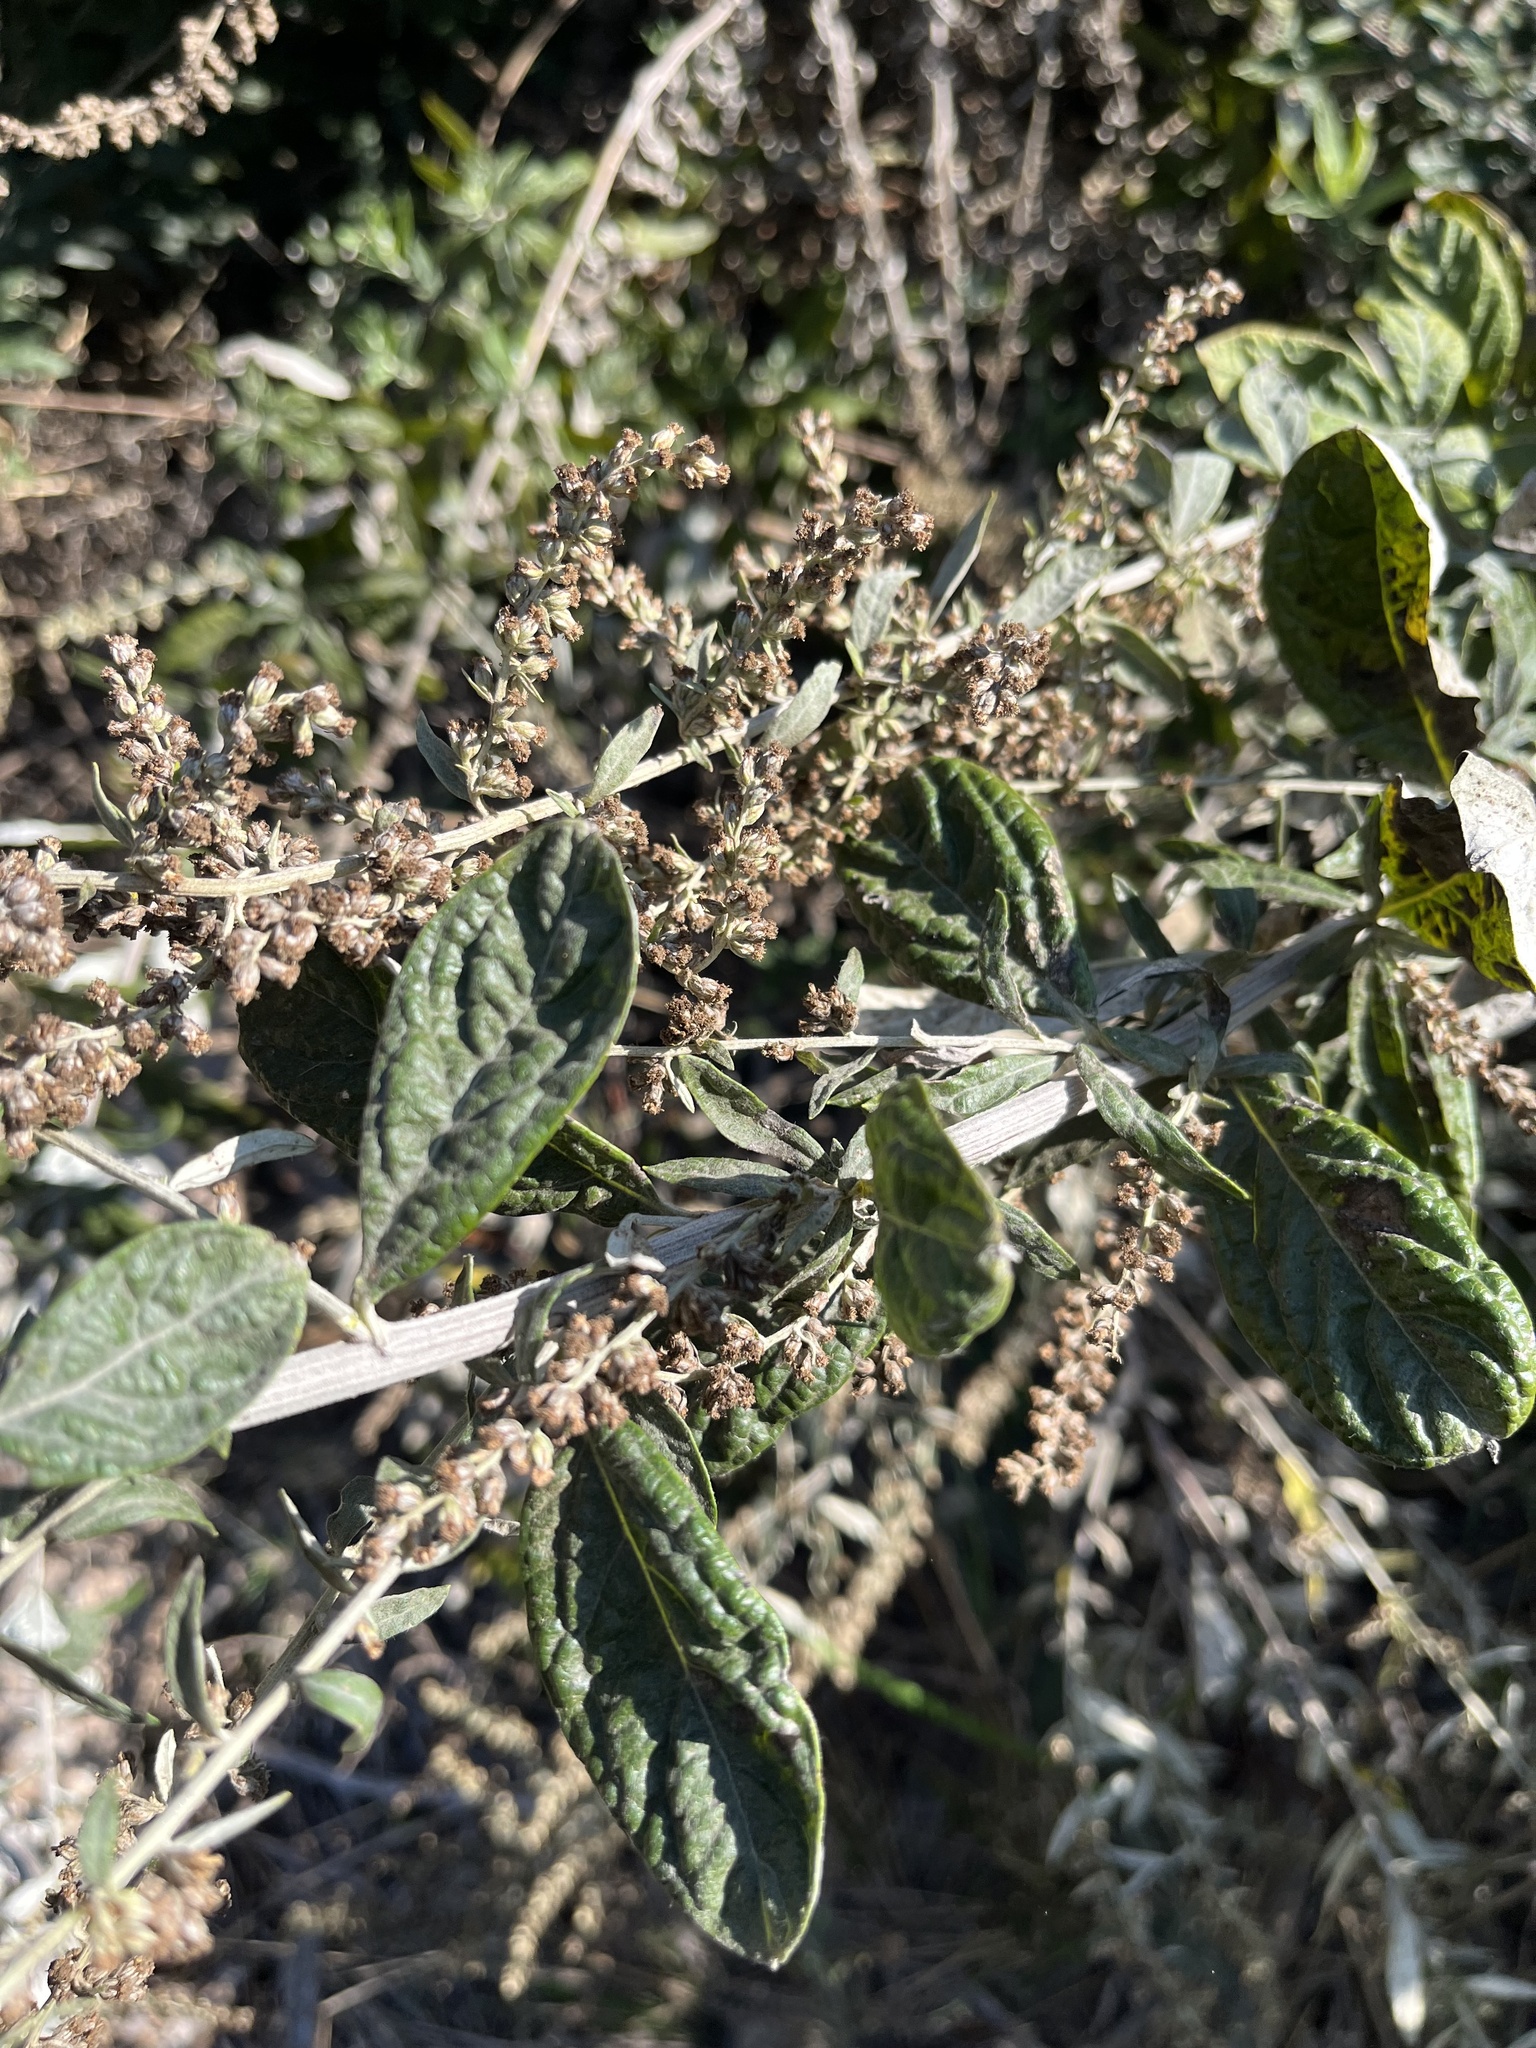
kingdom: Plantae
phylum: Tracheophyta
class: Magnoliopsida
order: Asterales
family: Asteraceae
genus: Artemisia
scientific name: Artemisia douglasiana
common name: Northwest mugwort
